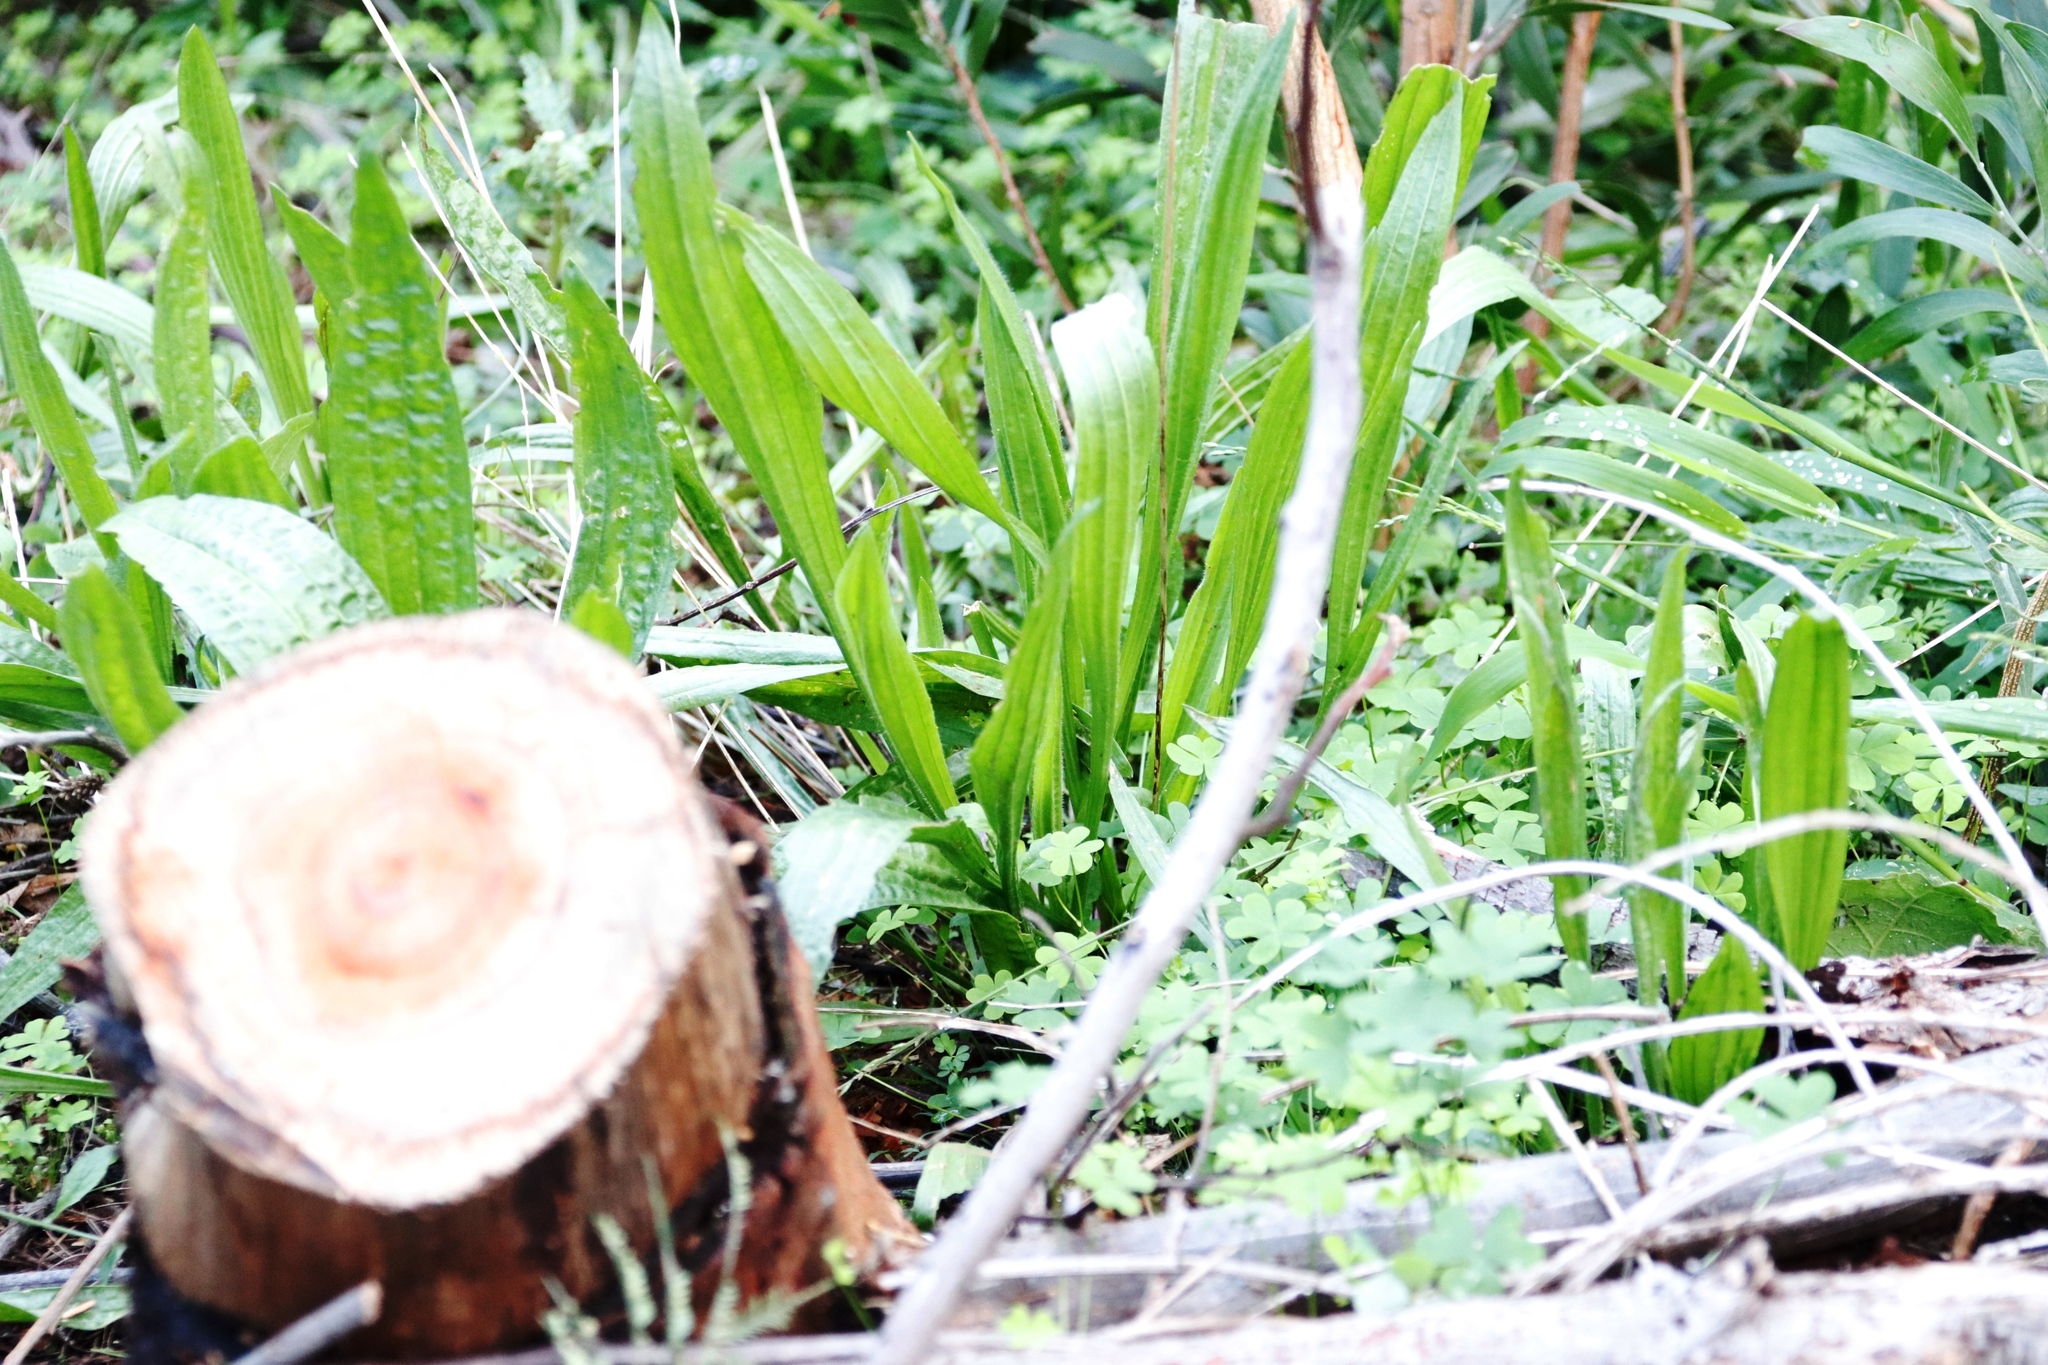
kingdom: Plantae
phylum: Tracheophyta
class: Magnoliopsida
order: Lamiales
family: Plantaginaceae
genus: Plantago
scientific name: Plantago lanceolata
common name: Ribwort plantain
